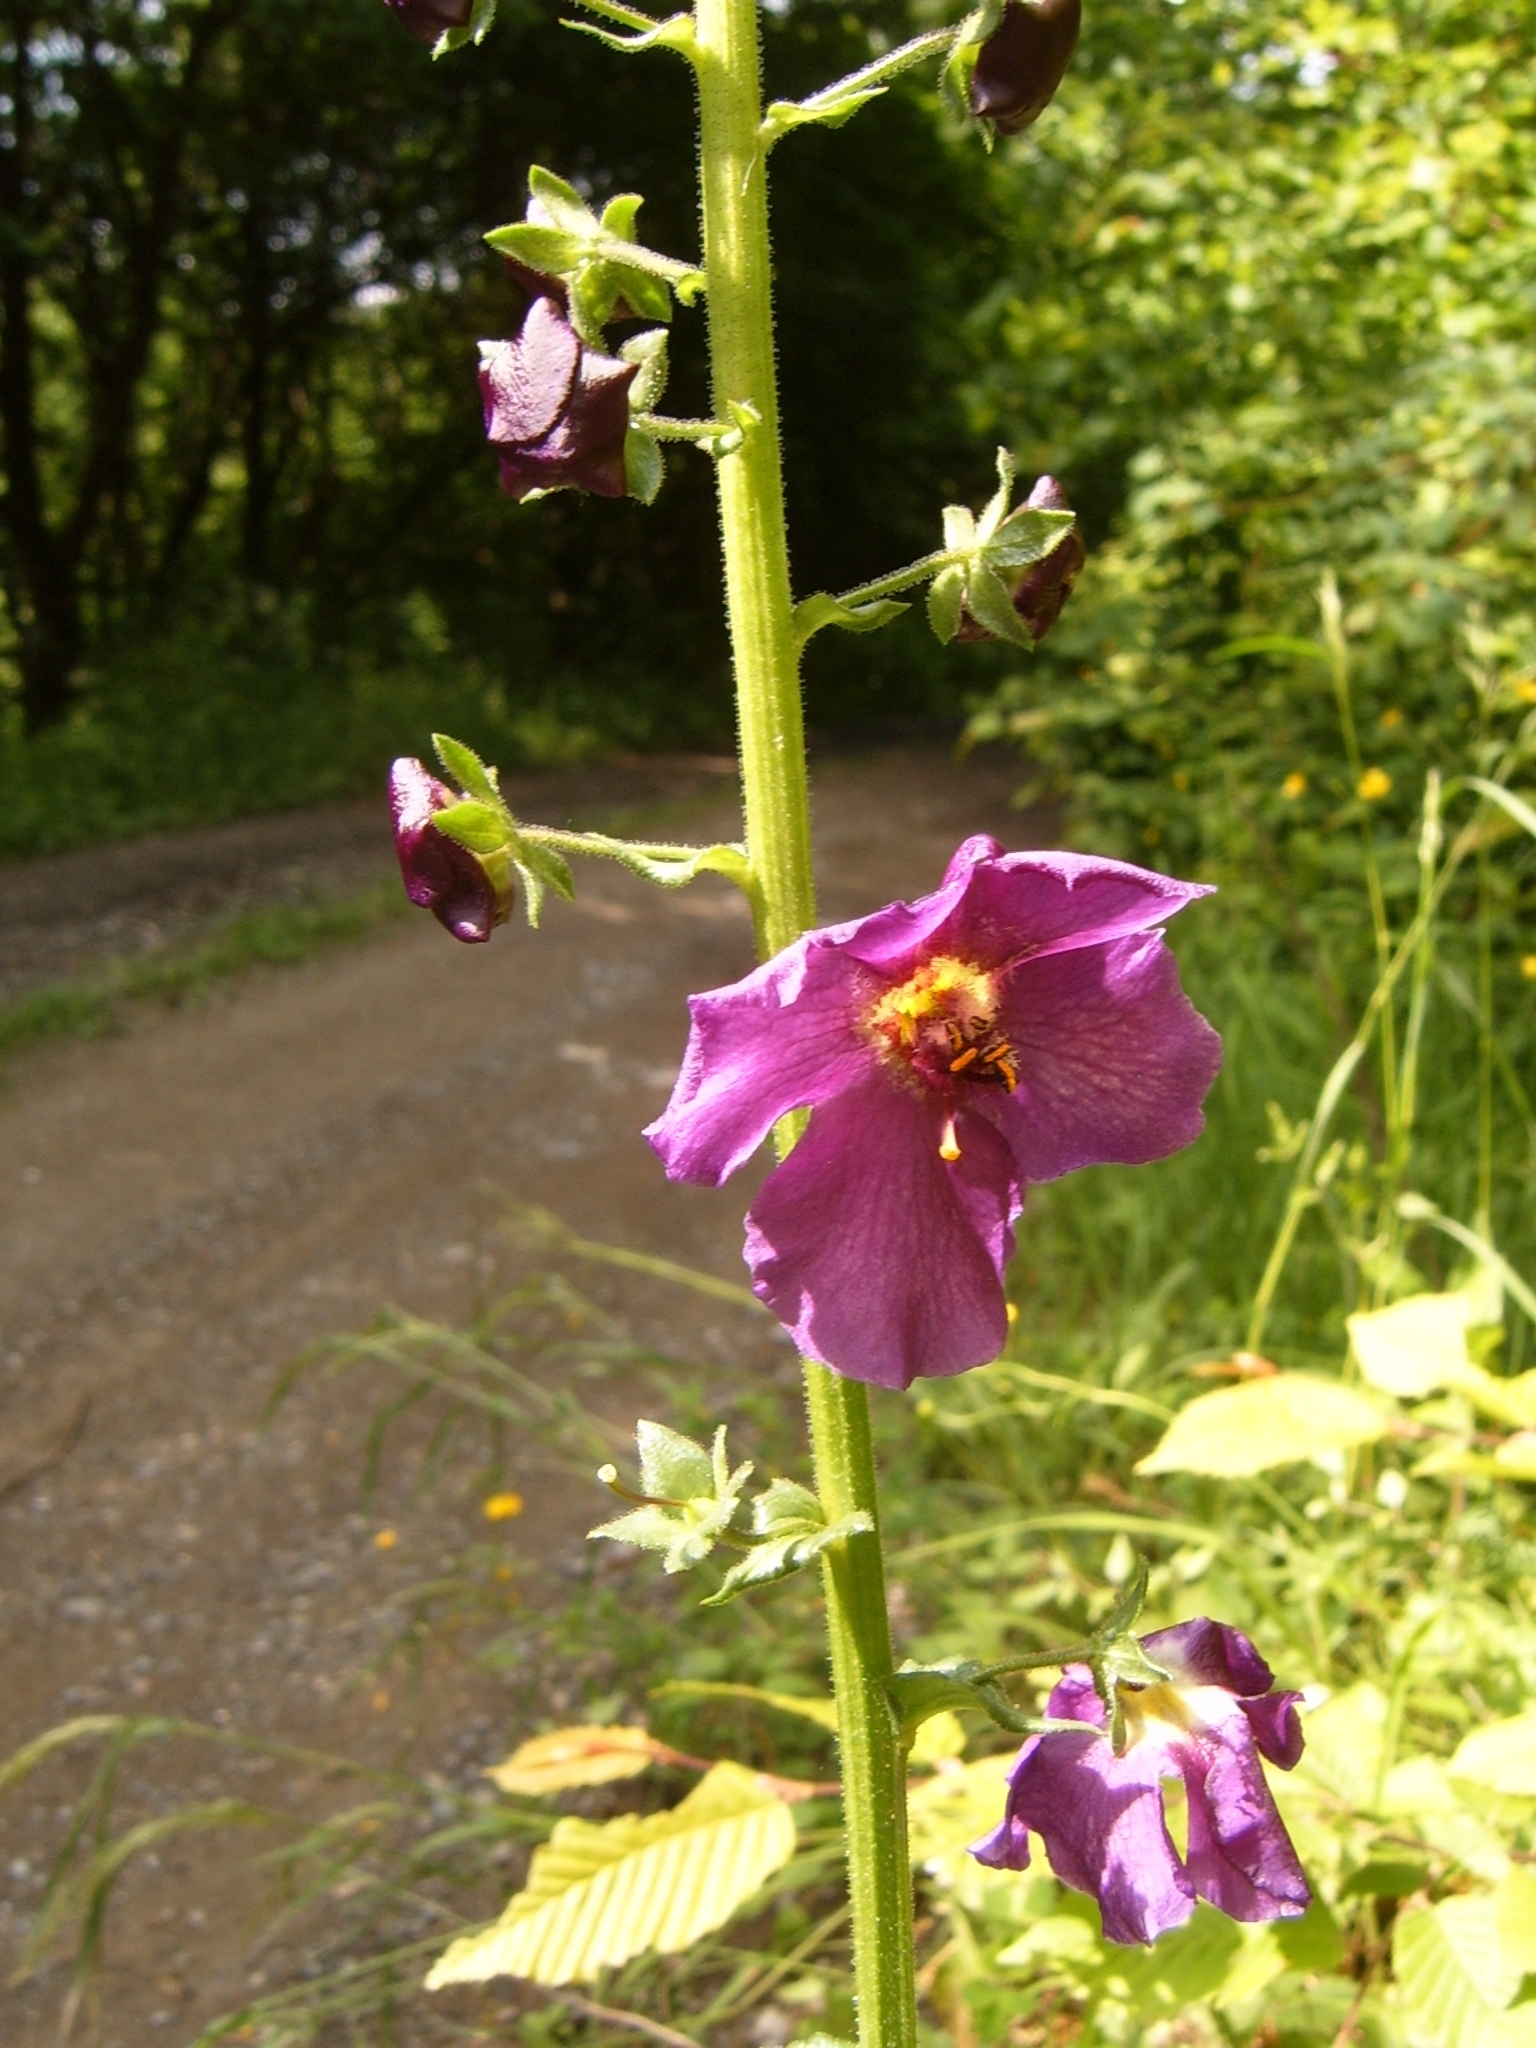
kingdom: Plantae
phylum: Tracheophyta
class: Magnoliopsida
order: Lamiales
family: Scrophulariaceae
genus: Verbascum
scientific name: Verbascum phoeniceum
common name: Purple mullein
